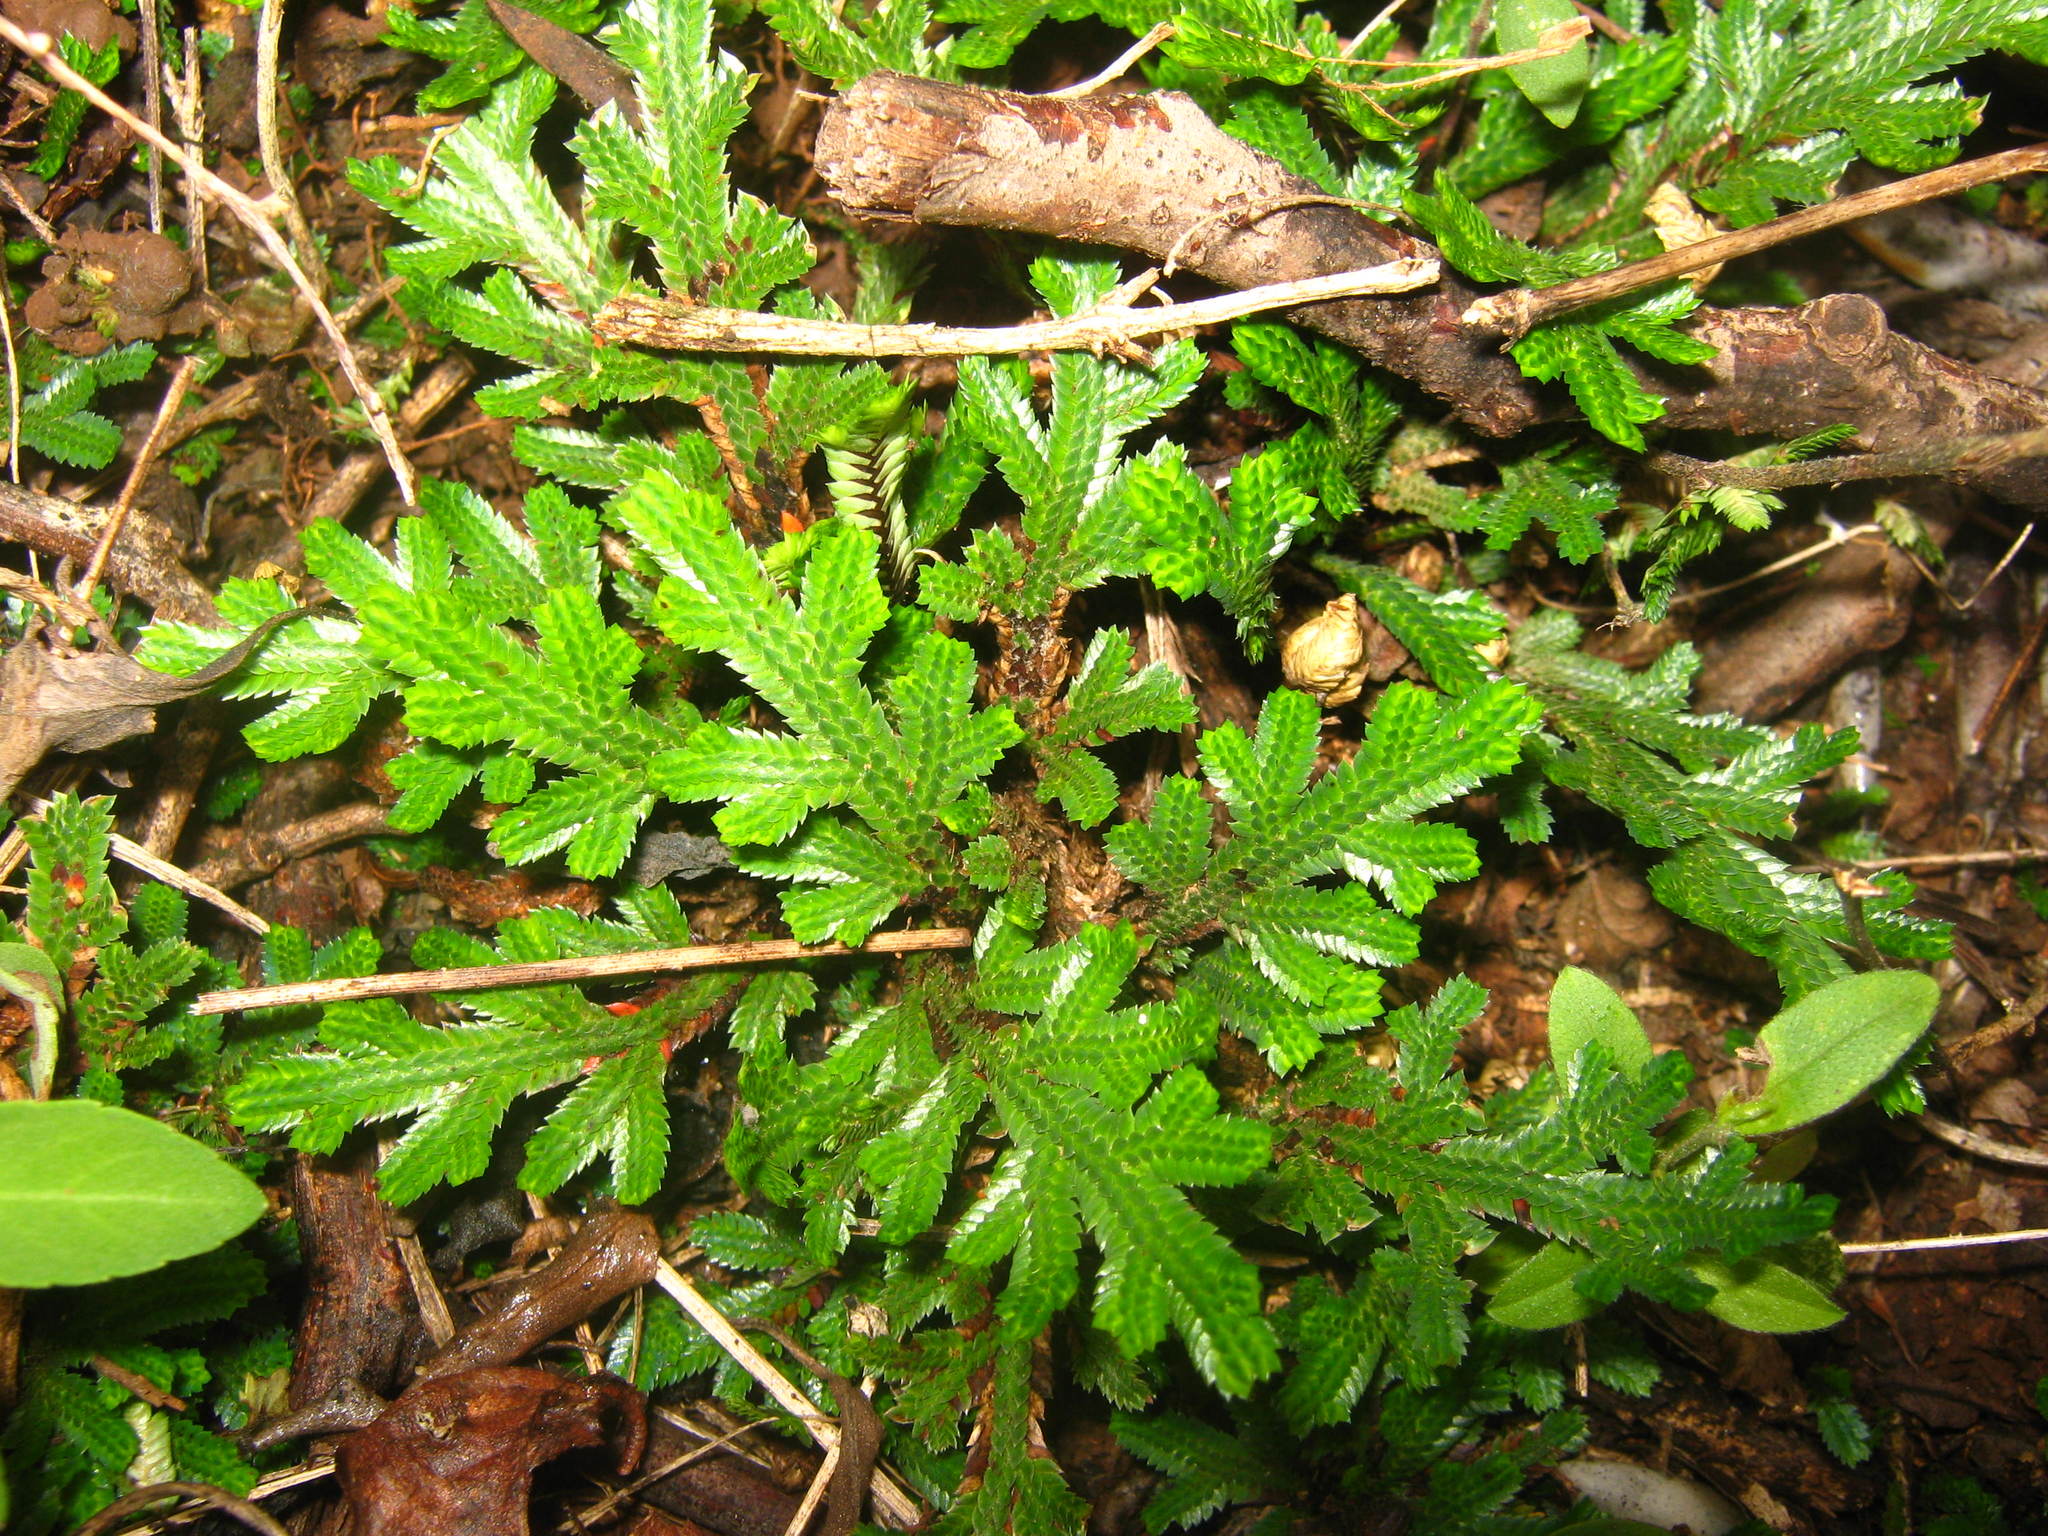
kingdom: Plantae
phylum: Tracheophyta
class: Lycopodiopsida
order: Selaginellales
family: Selaginellaceae
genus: Selaginella
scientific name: Selaginella convoluta
